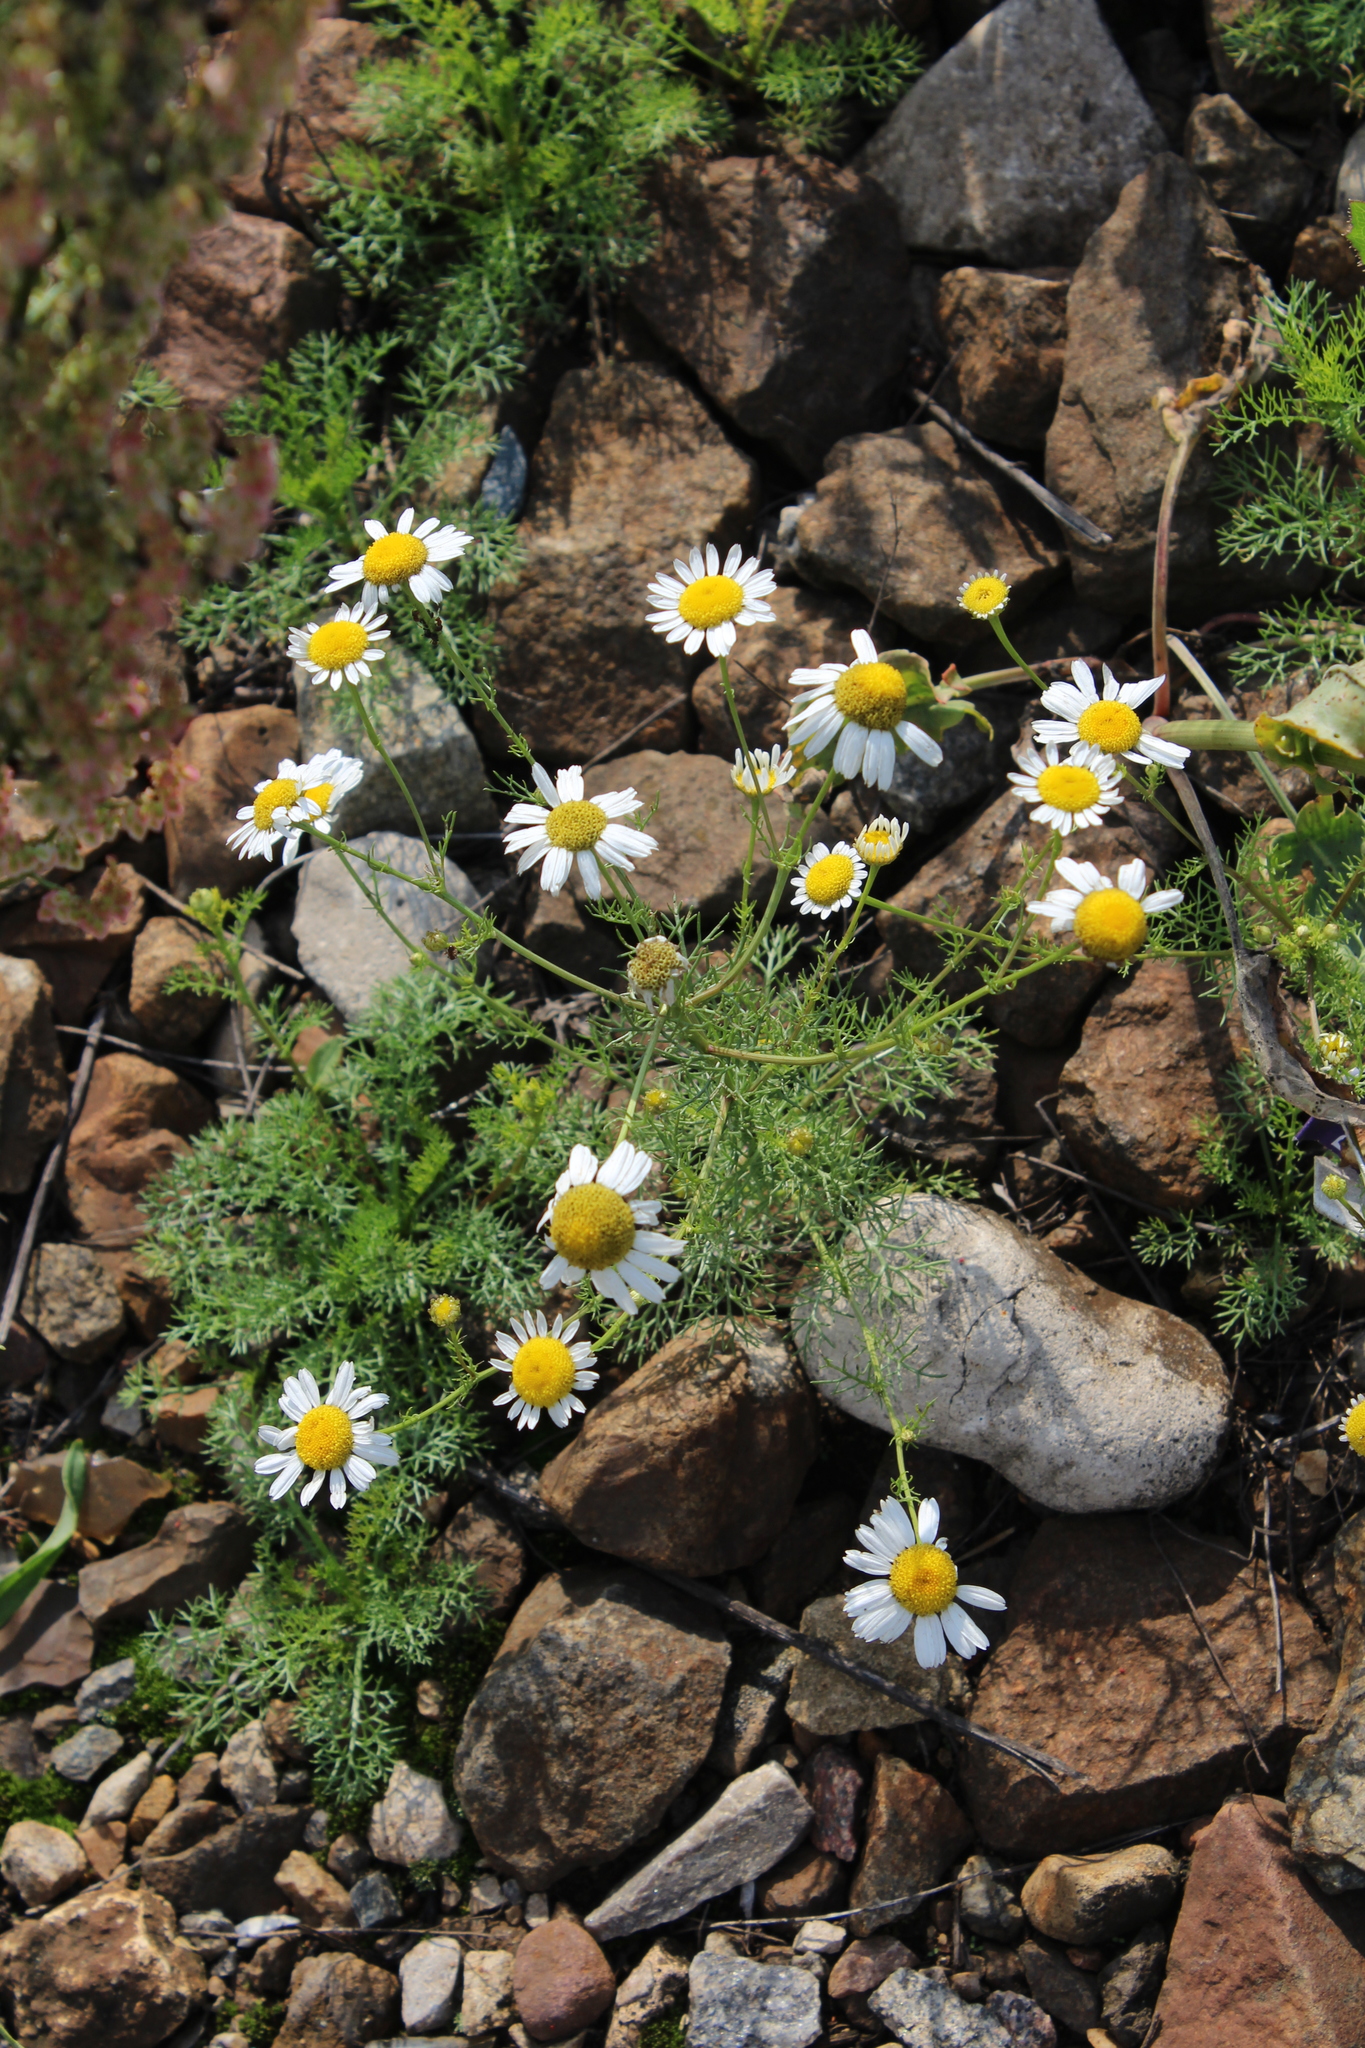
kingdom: Plantae
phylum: Tracheophyta
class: Magnoliopsida
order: Asterales
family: Asteraceae
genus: Tripleurospermum
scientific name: Tripleurospermum inodorum
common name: Scentless mayweed
